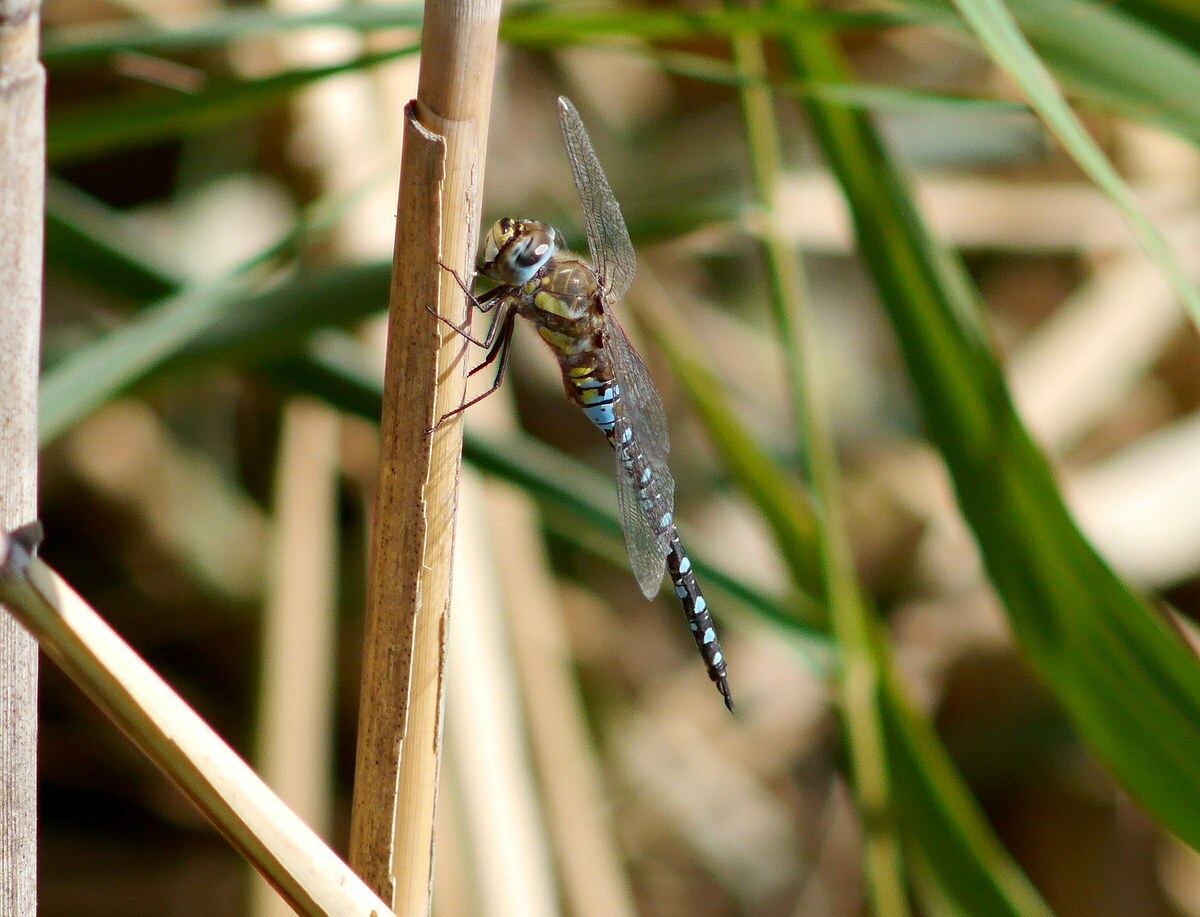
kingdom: Animalia
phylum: Arthropoda
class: Insecta
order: Odonata
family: Aeshnidae
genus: Aeshna
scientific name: Aeshna mixta
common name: Migrant hawker
